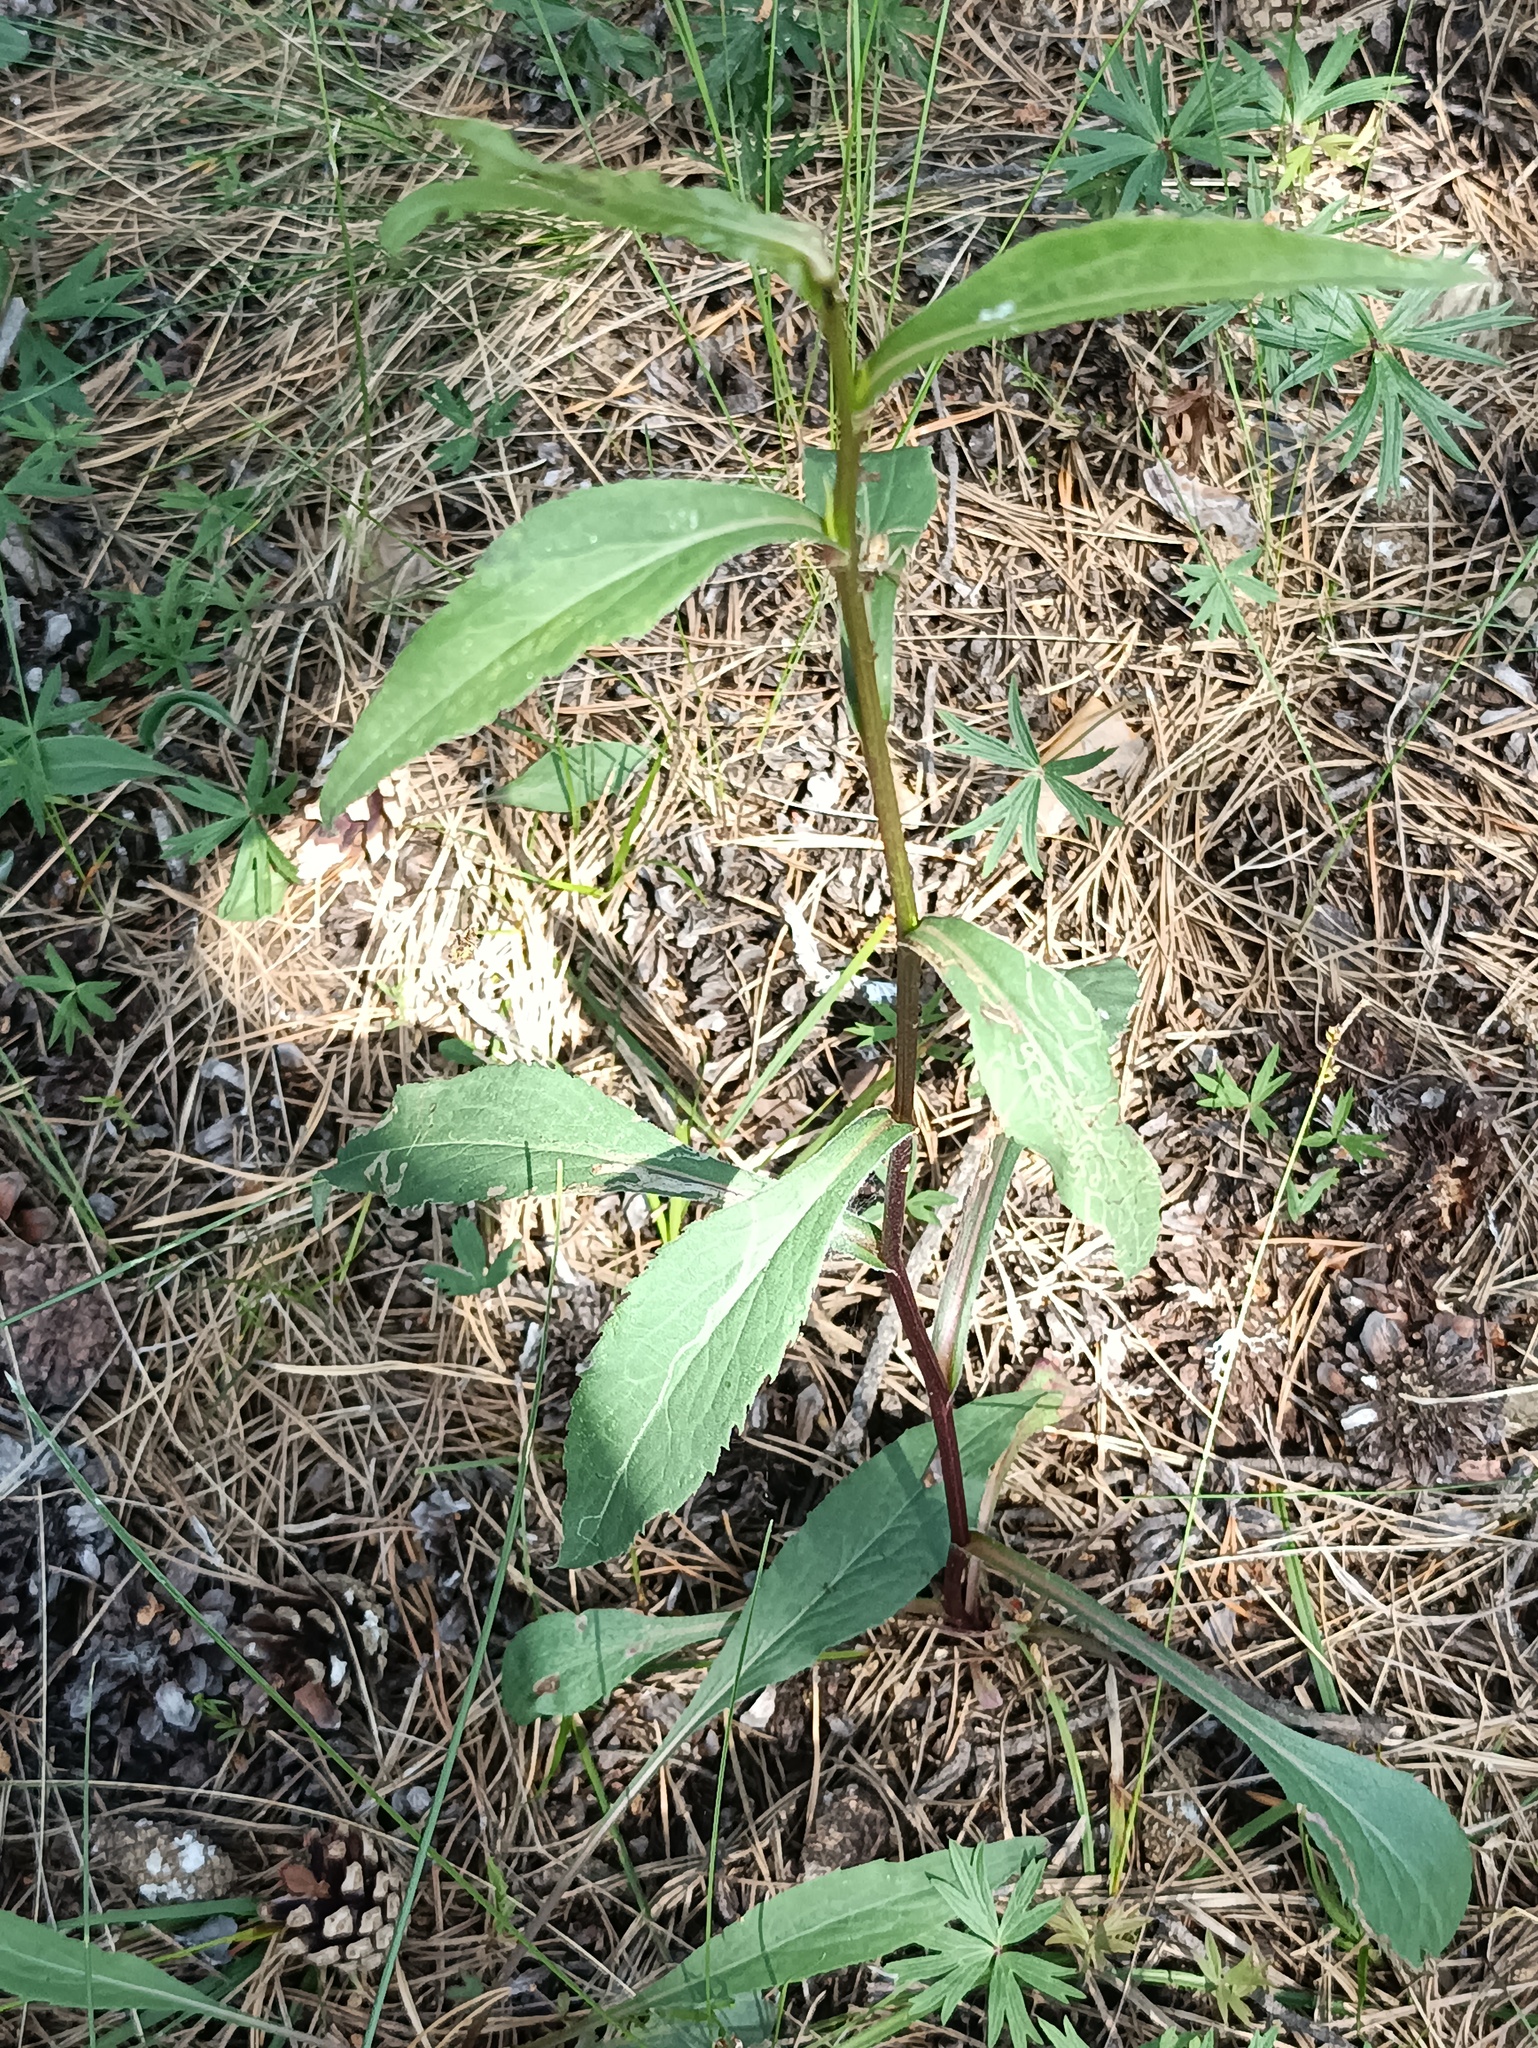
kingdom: Plantae
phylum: Tracheophyta
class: Magnoliopsida
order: Asterales
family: Asteraceae
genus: Solidago
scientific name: Solidago virgaurea
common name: Goldenrod
